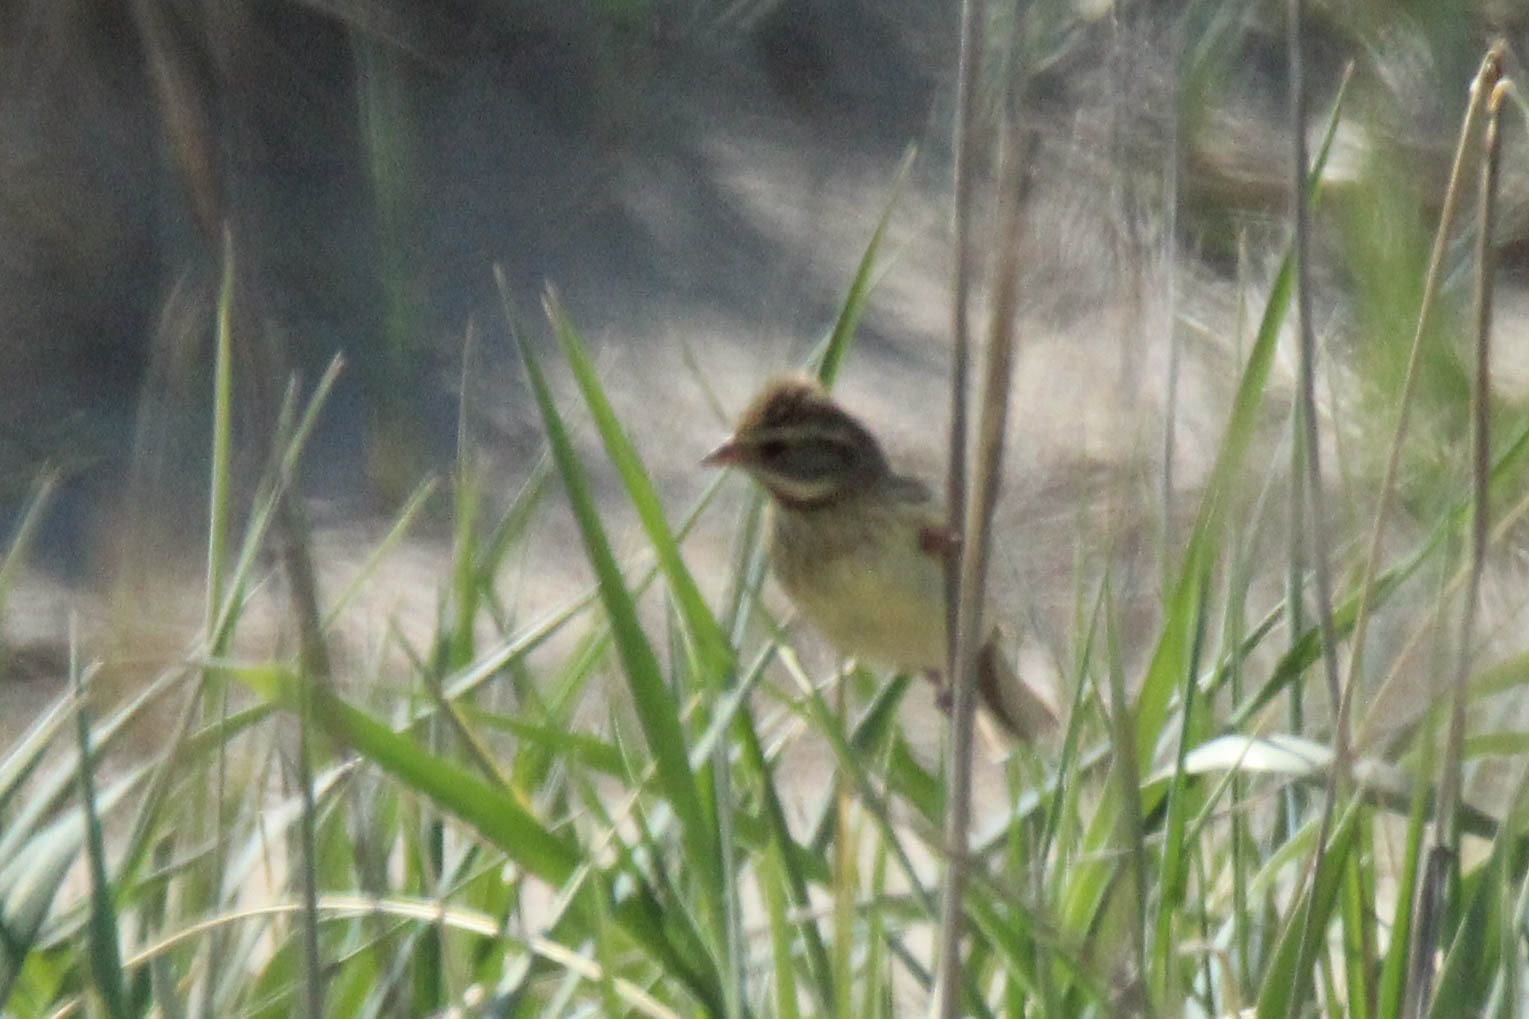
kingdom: Animalia
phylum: Chordata
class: Aves
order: Passeriformes
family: Emberizidae
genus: Emberiza
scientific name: Emberiza spodocephala
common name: Black-faced bunting
